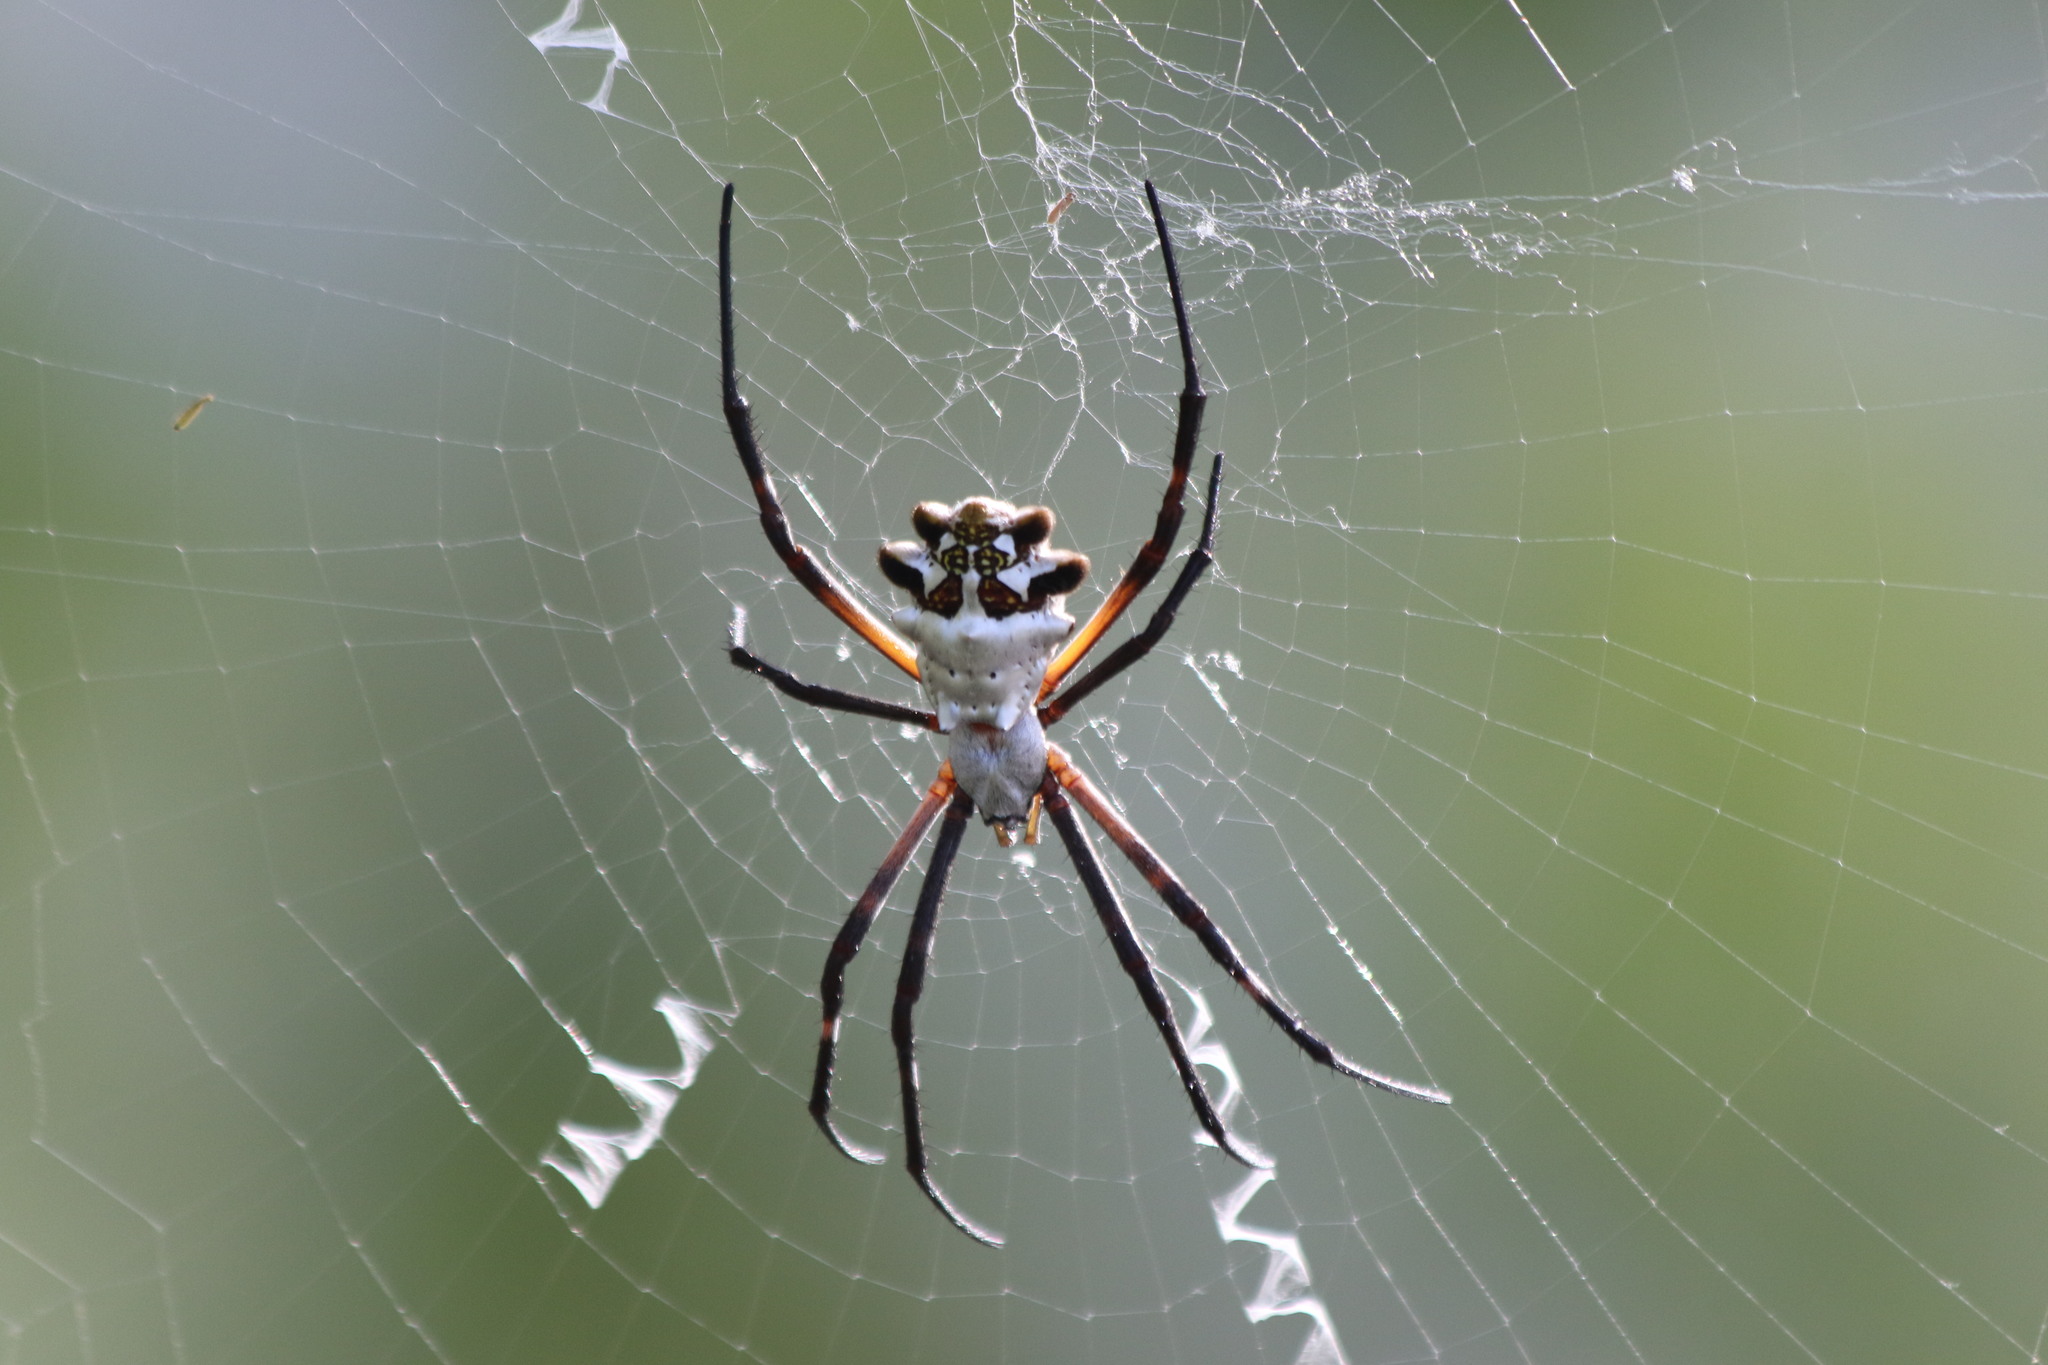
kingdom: Animalia
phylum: Arthropoda
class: Arachnida
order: Araneae
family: Araneidae
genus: Argiope
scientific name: Argiope argentata
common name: Orb weavers
